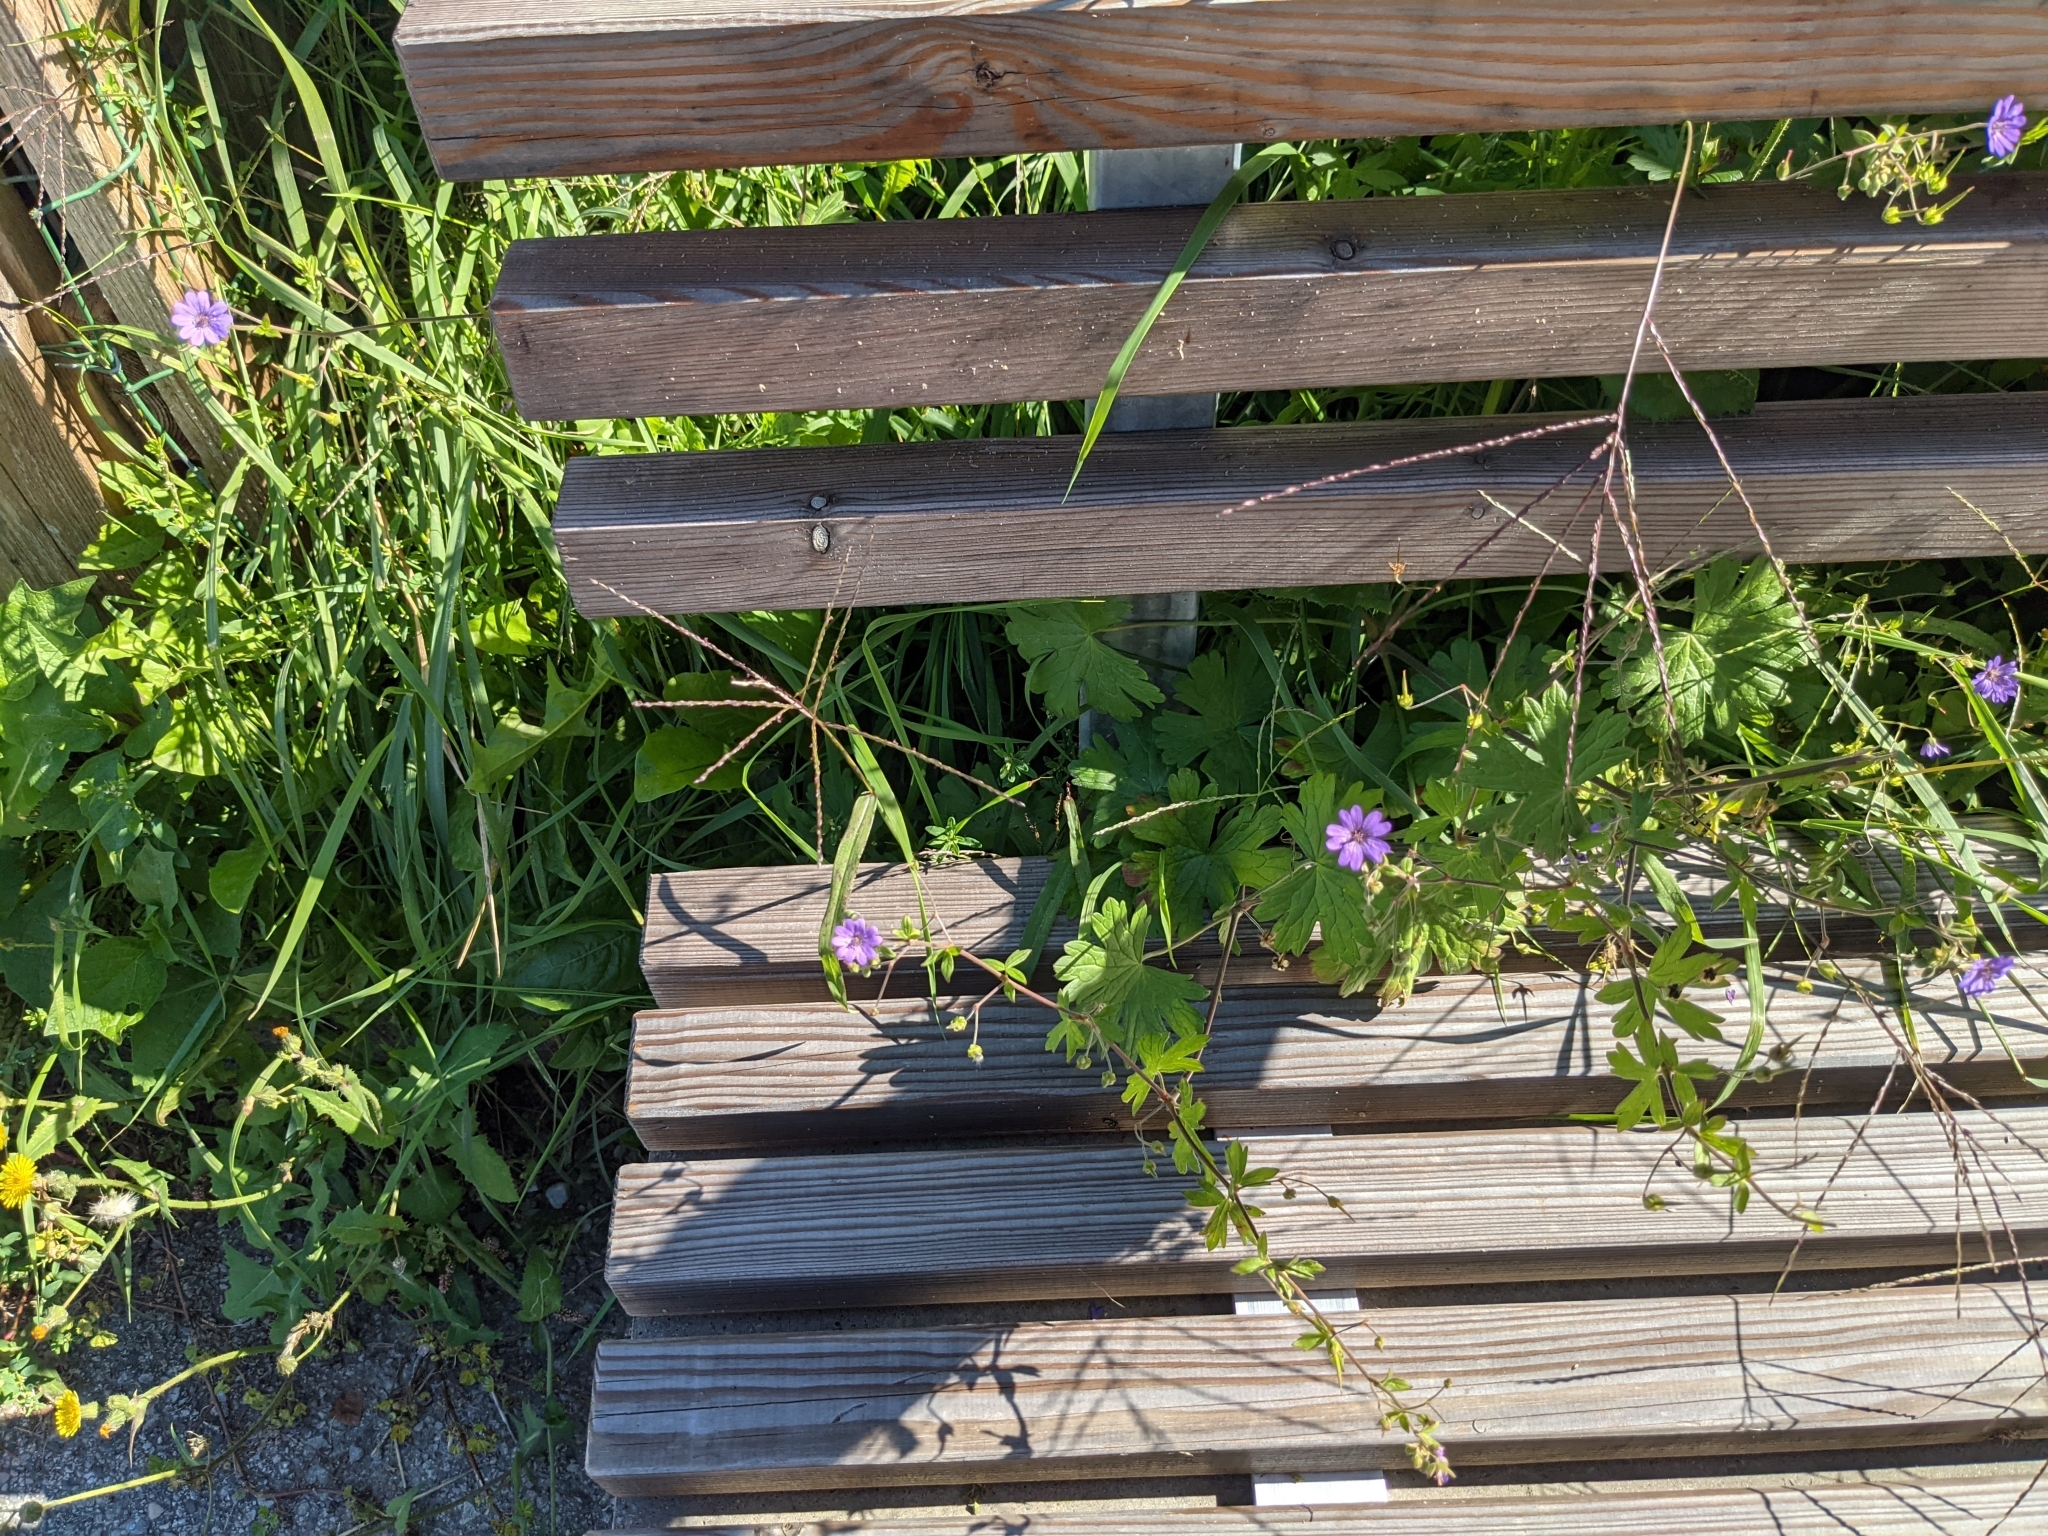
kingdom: Plantae
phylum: Tracheophyta
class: Magnoliopsida
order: Geraniales
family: Geraniaceae
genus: Geranium
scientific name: Geranium pyrenaicum
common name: Hedgerow crane's-bill
